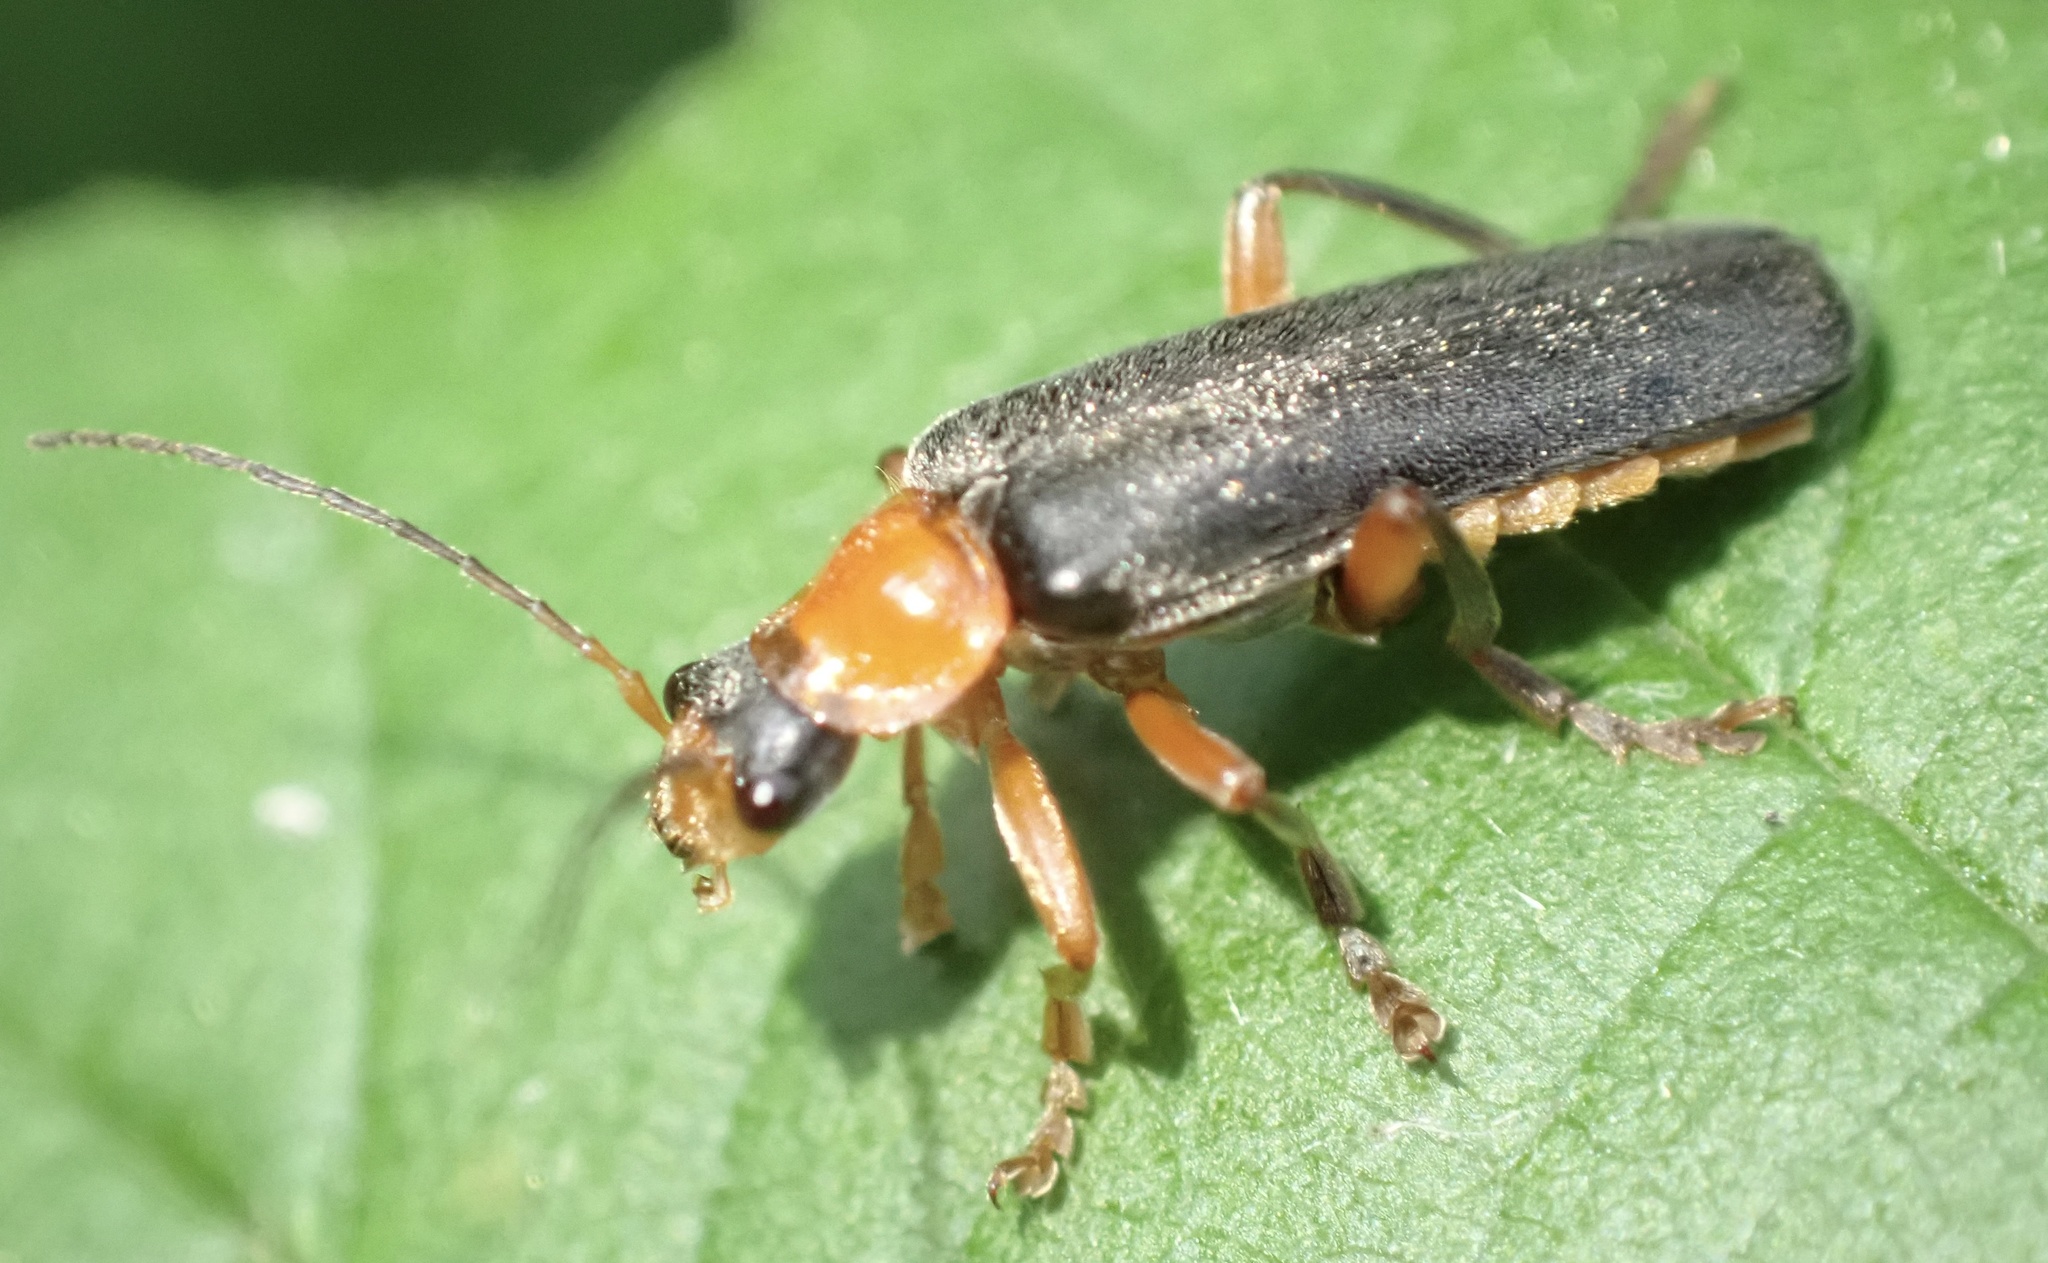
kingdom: Animalia
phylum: Arthropoda
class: Insecta
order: Coleoptera
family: Cantharidae
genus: Cantharis
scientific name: Cantharis pellucida
